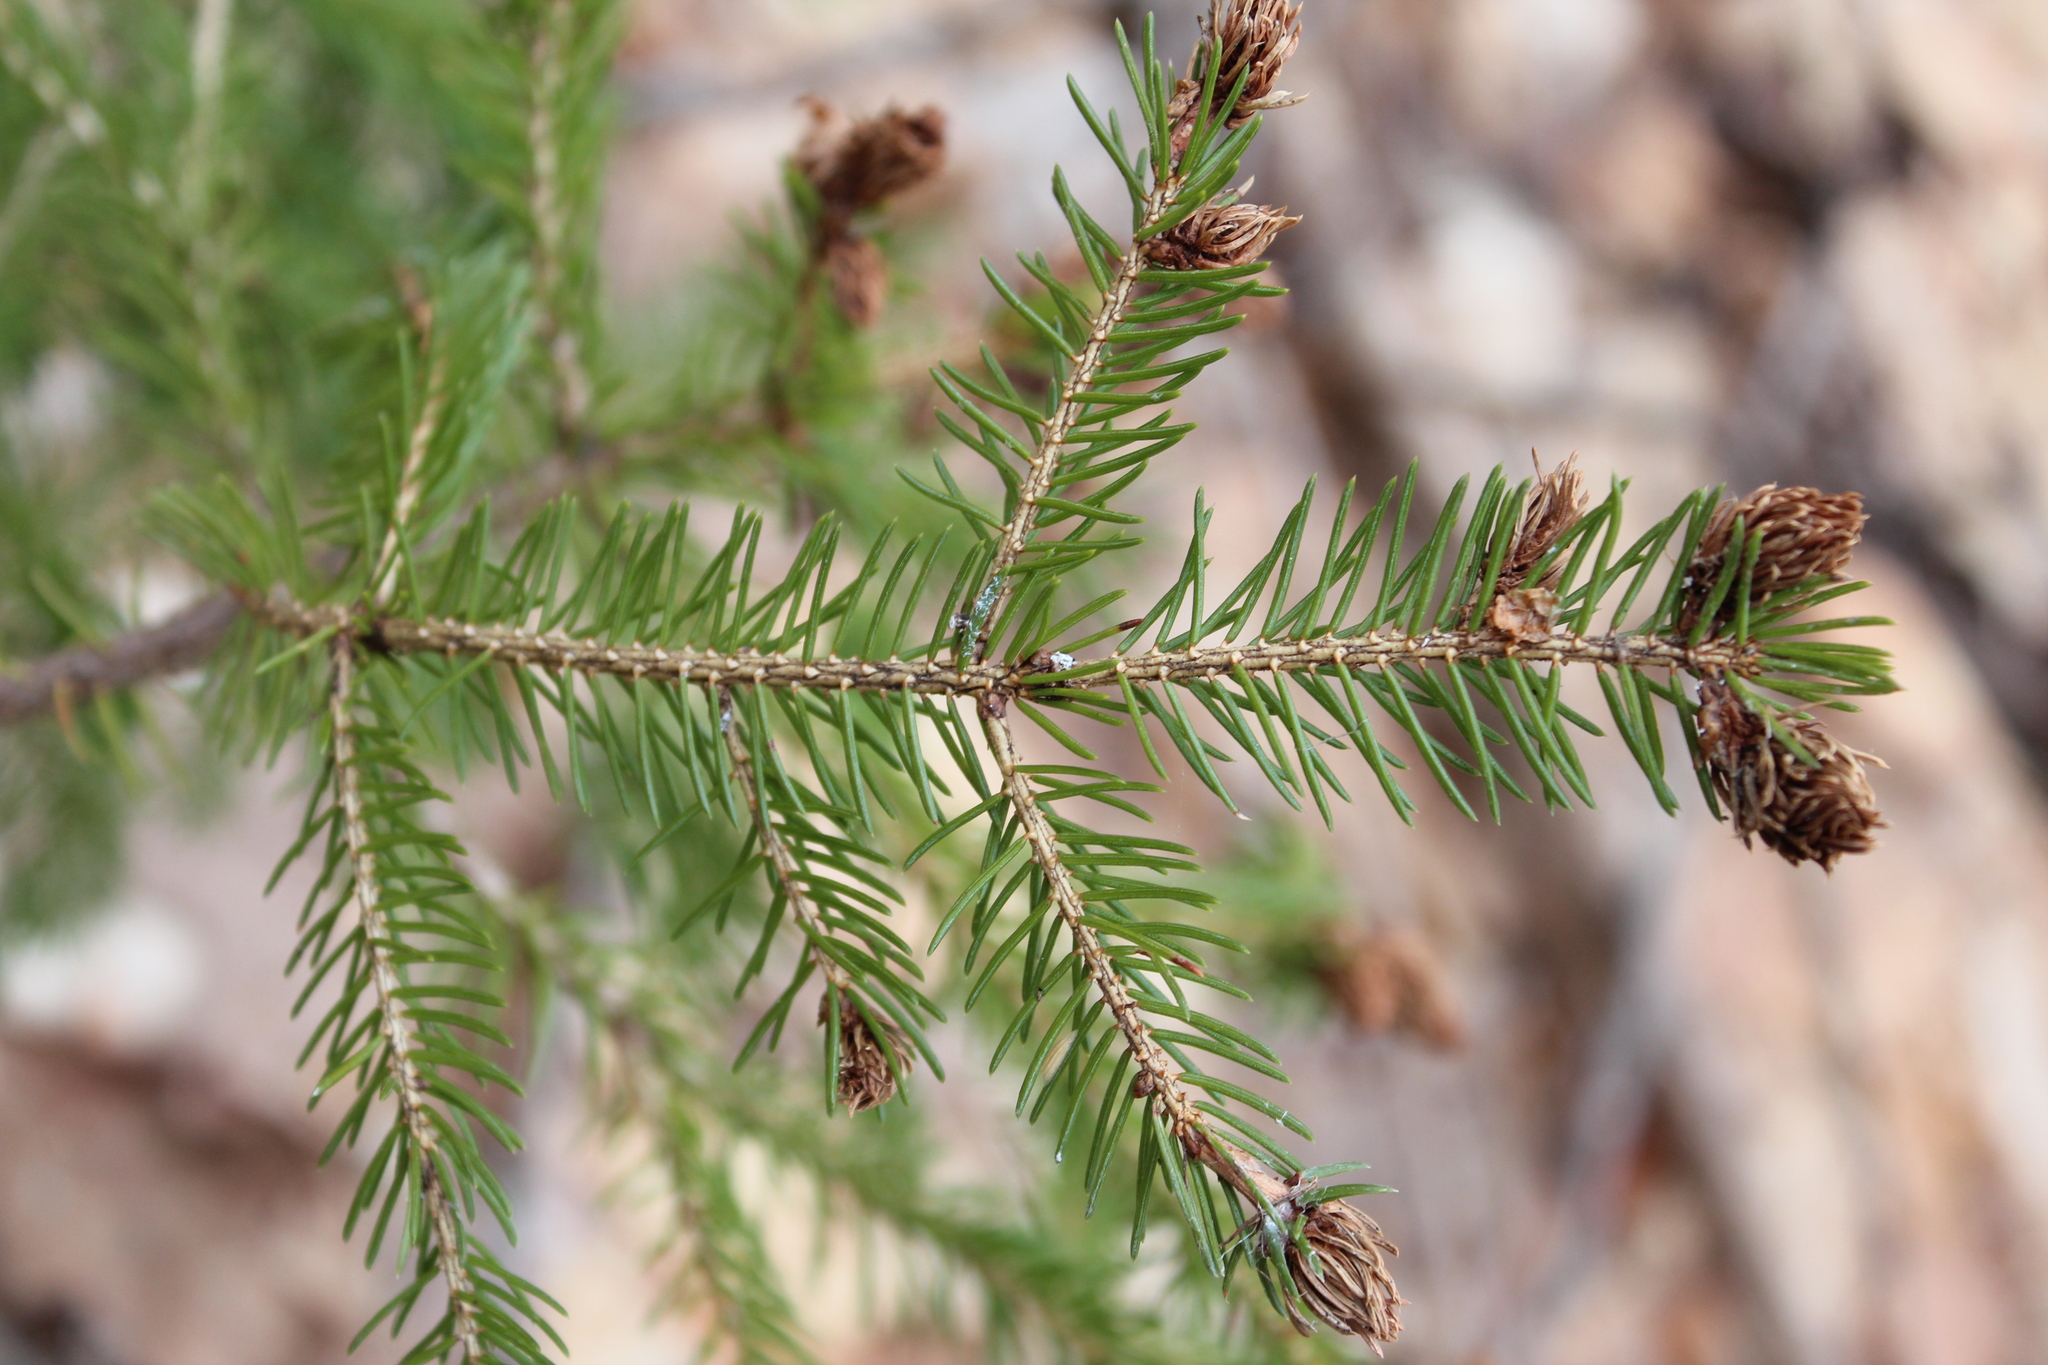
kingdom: Animalia
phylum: Arthropoda
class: Insecta
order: Hemiptera
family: Adelgidae
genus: Adelges
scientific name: Adelges abietis
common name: Eastern spruce gall adelgid
